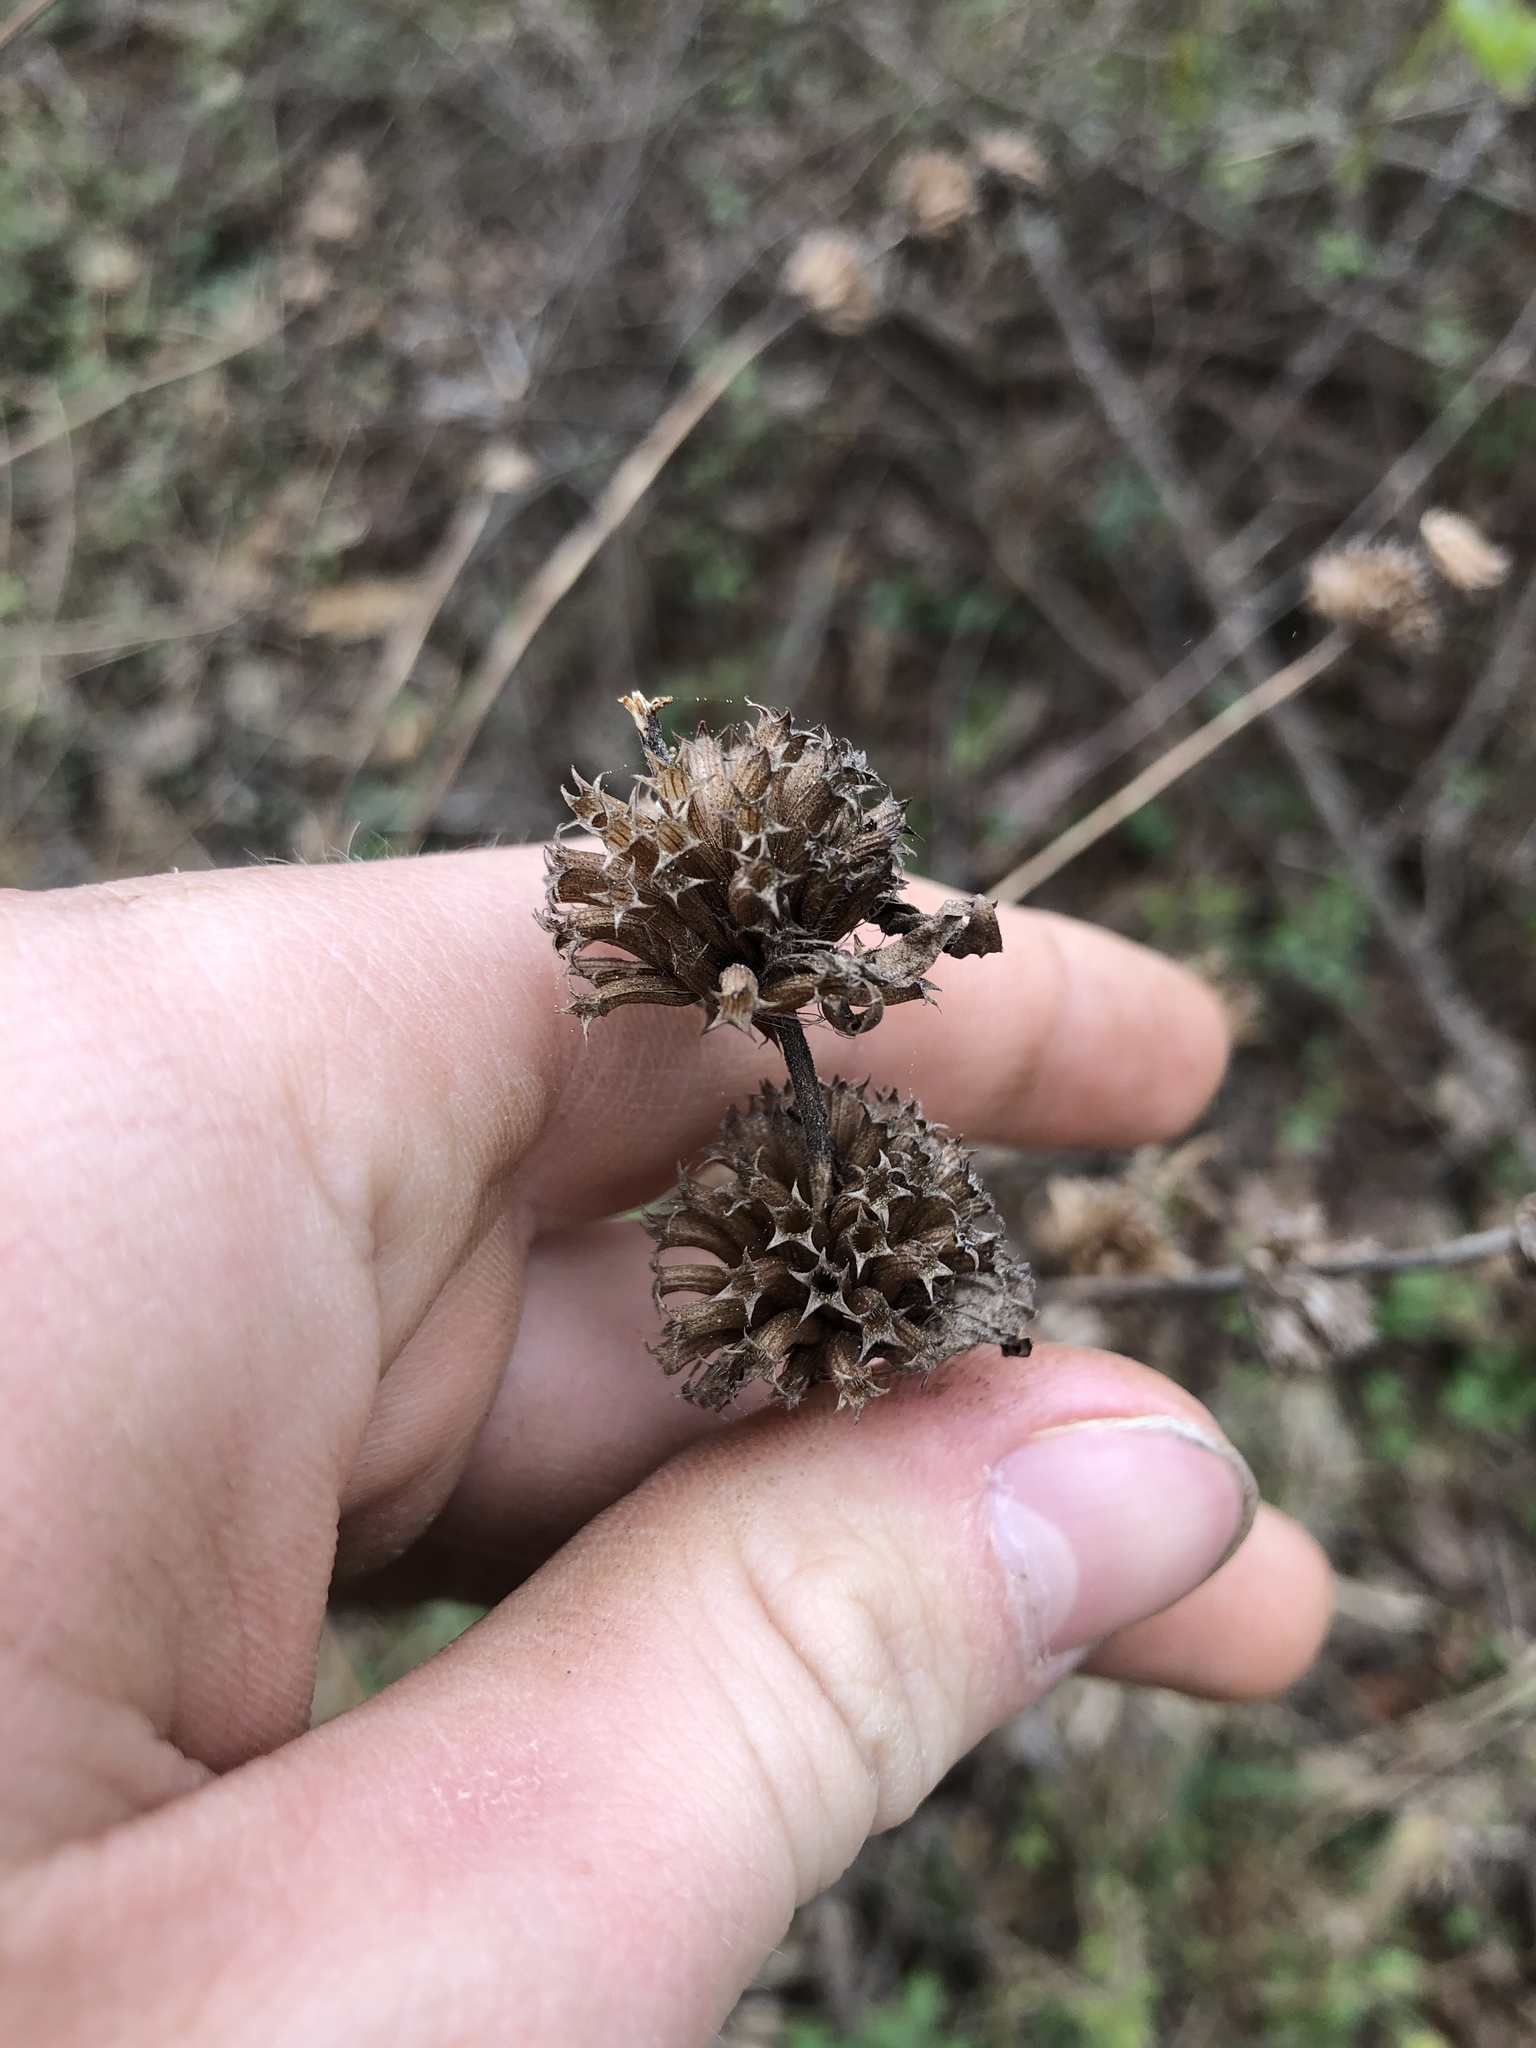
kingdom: Plantae
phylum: Tracheophyta
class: Magnoliopsida
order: Lamiales
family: Lamiaceae
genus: Monarda
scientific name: Monarda punctata
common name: Dotted monarda
